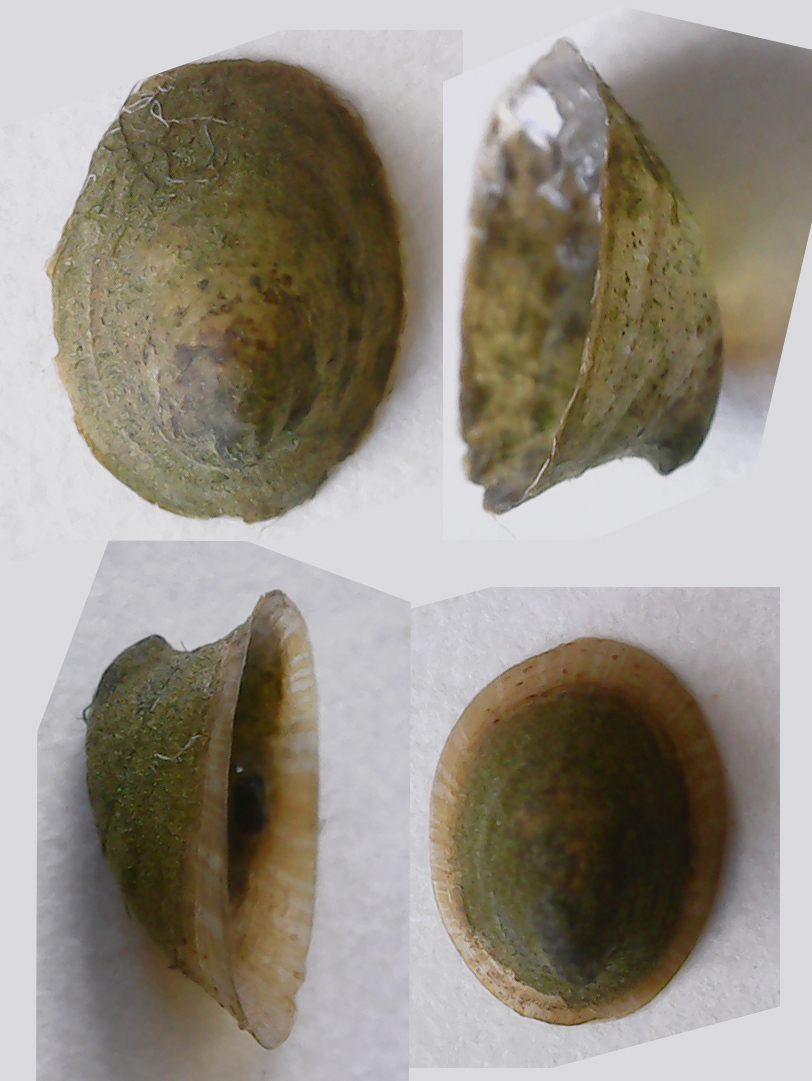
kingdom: Animalia
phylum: Mollusca
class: Gastropoda
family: Planorbidae
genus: Ancylus
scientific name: Ancylus fluviatilis
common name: River limpet
